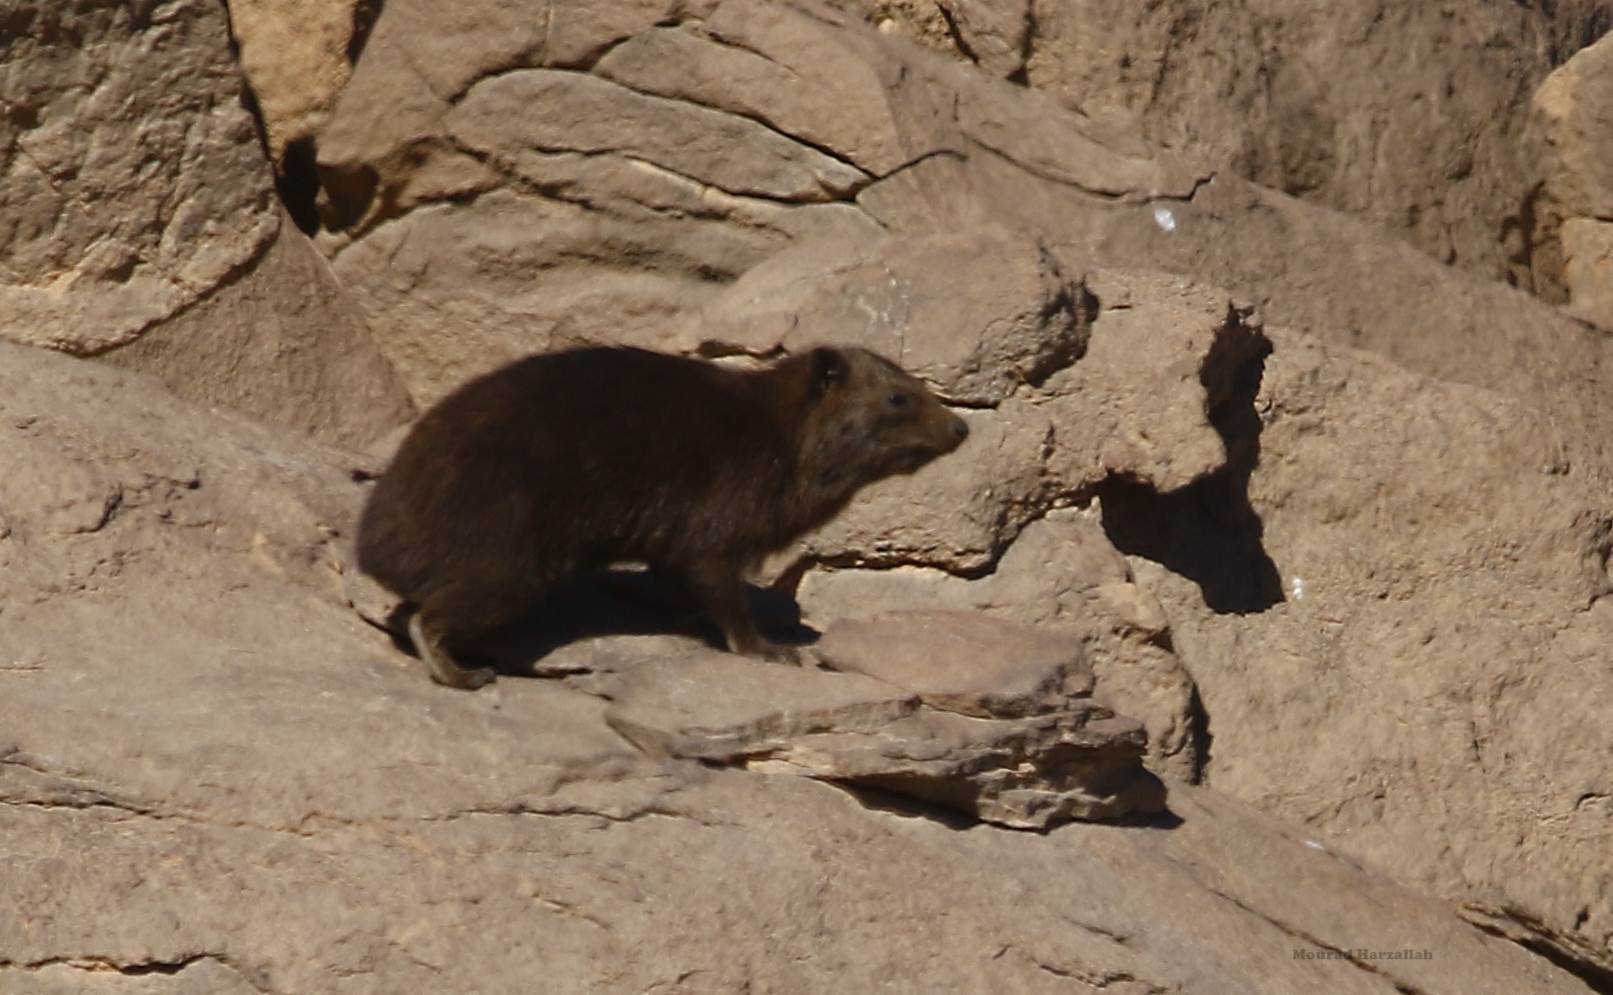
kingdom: Animalia
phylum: Chordata
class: Mammalia
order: Hyracoidea
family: Procaviidae
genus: Procavia
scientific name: Procavia capensis
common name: Rock hyrax
